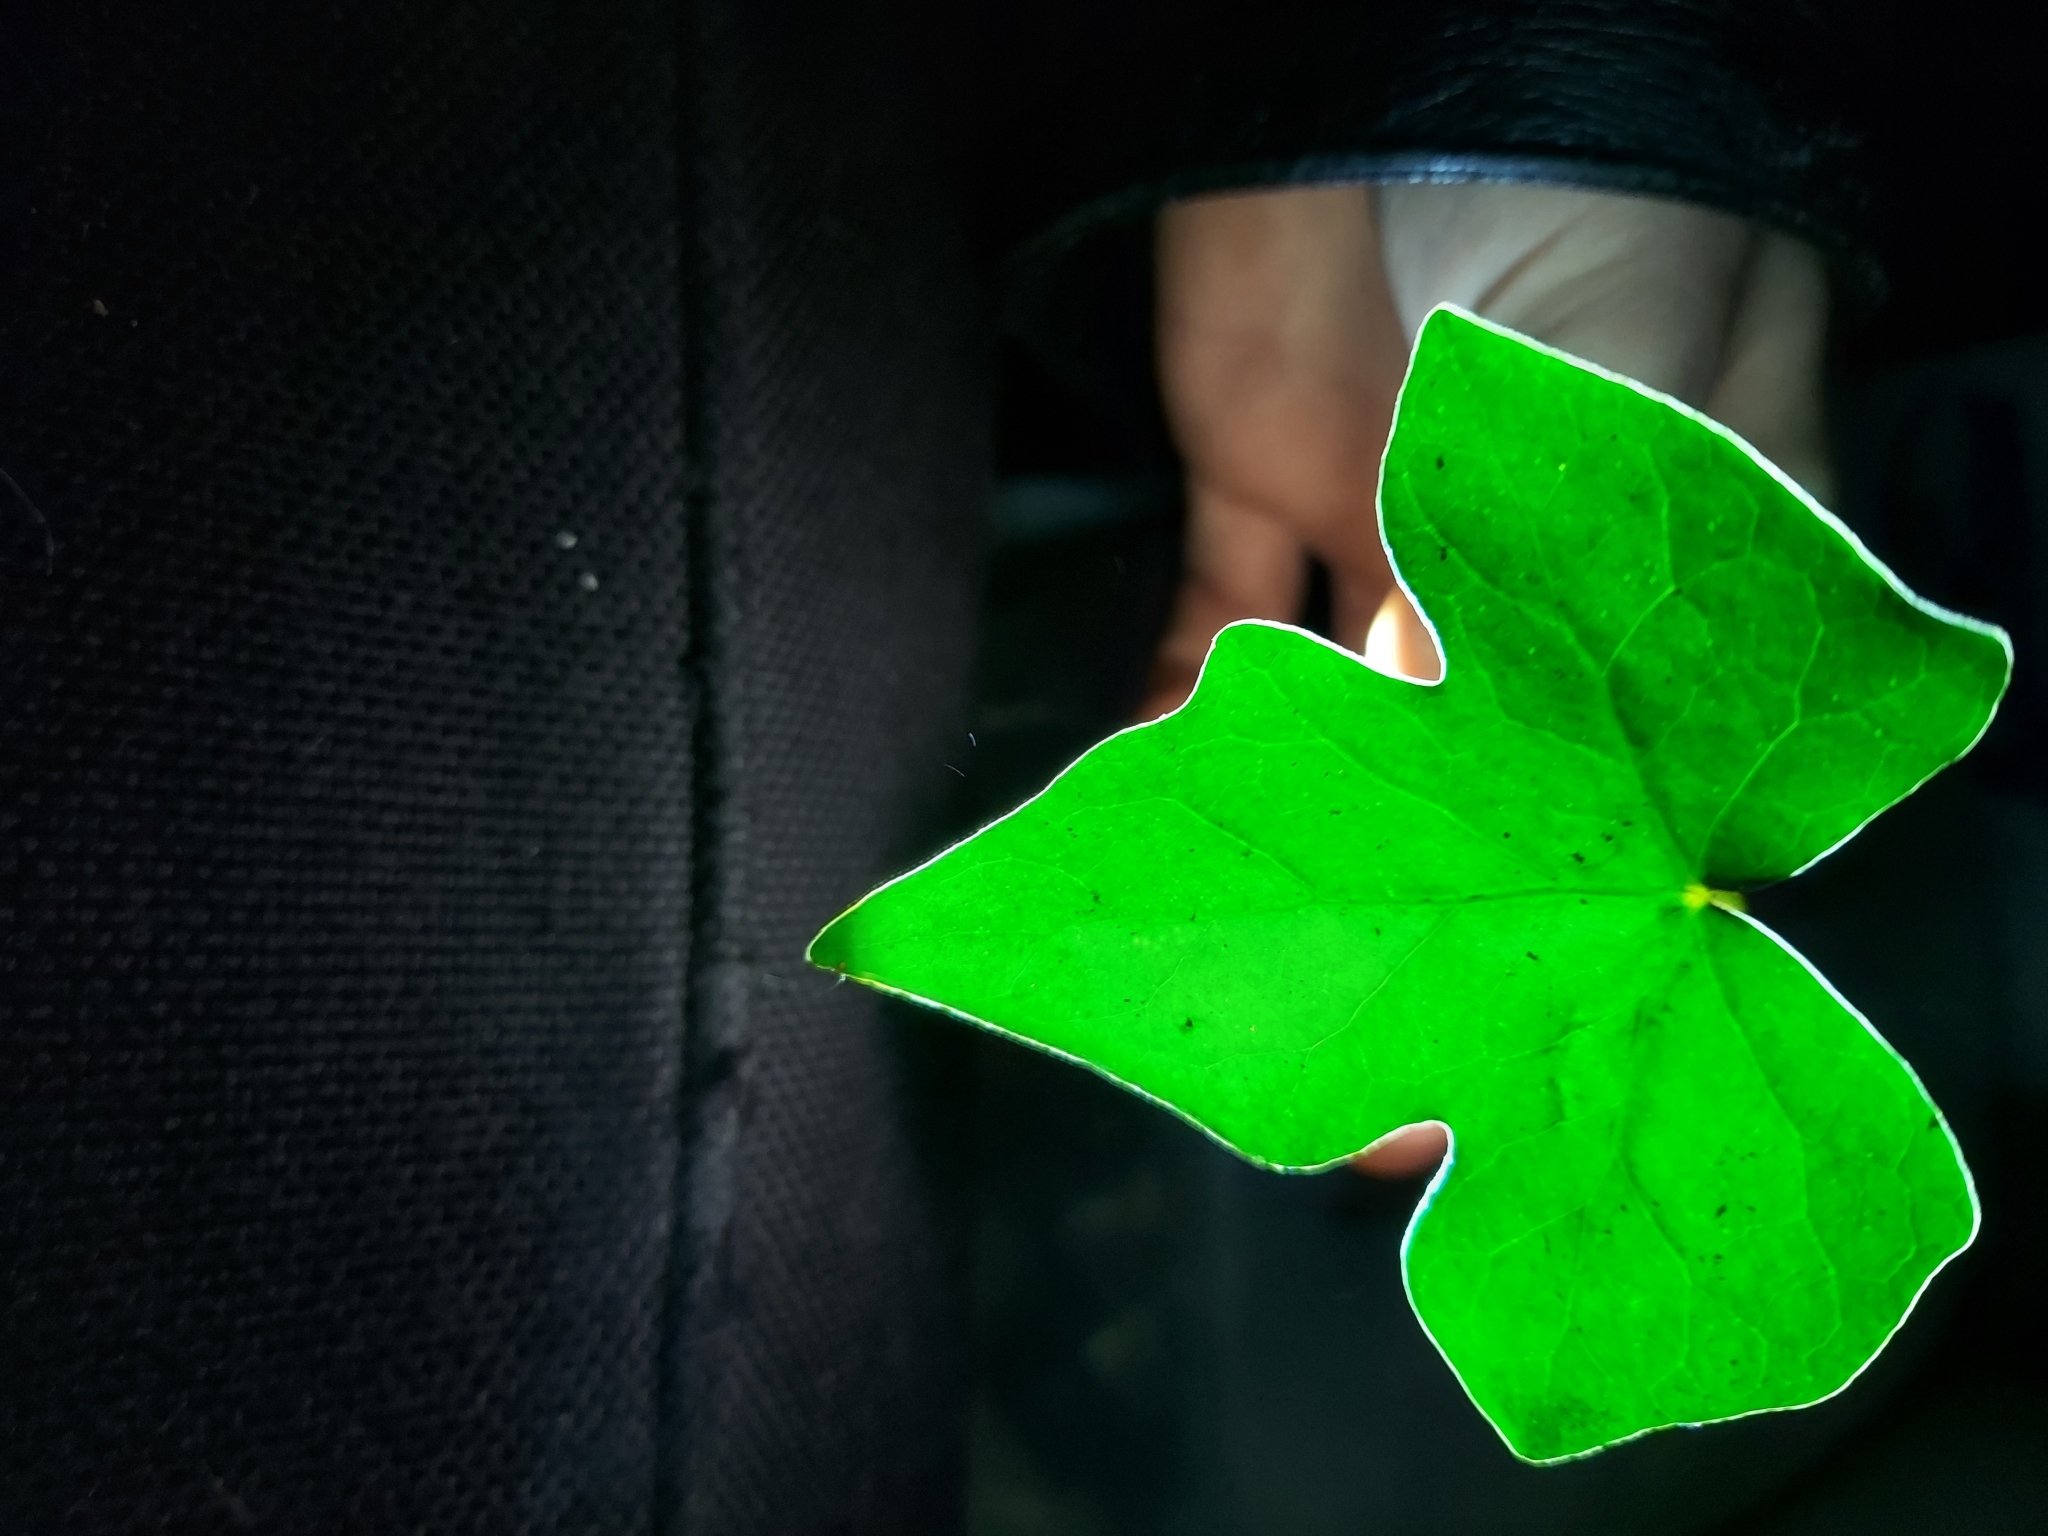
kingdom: Plantae
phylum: Tracheophyta
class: Magnoliopsida
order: Apiales
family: Araliaceae
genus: Hedera
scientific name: Hedera helix
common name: Ivy
